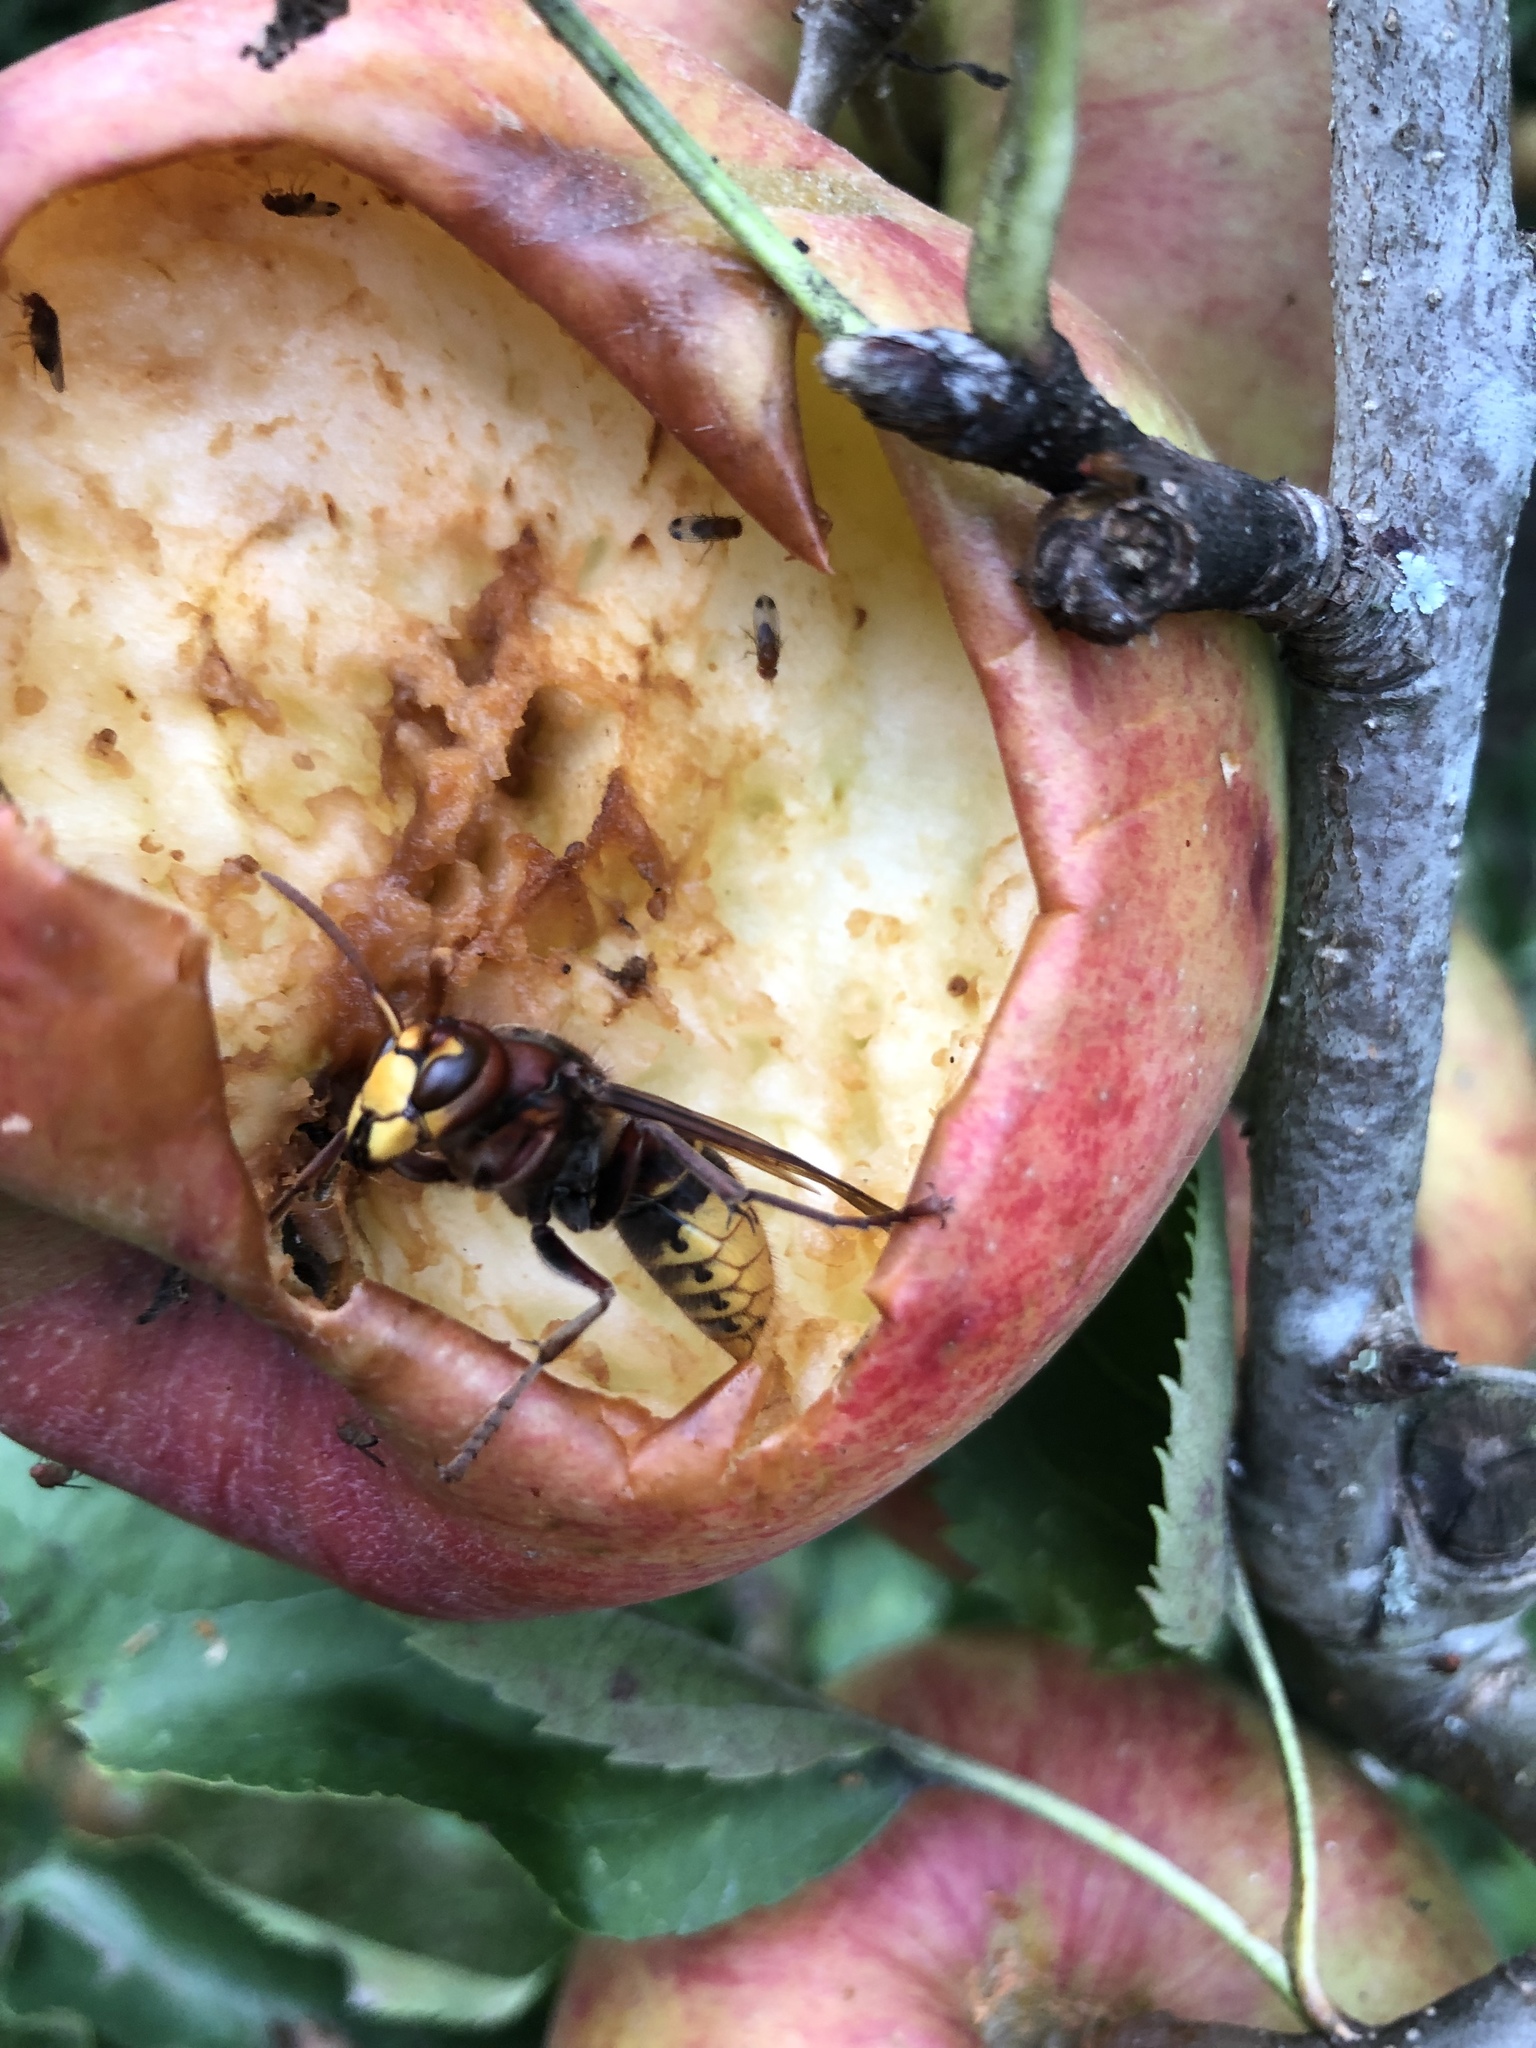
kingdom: Animalia
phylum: Arthropoda
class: Insecta
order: Hymenoptera
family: Vespidae
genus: Vespa
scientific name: Vespa crabro
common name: Hornet
